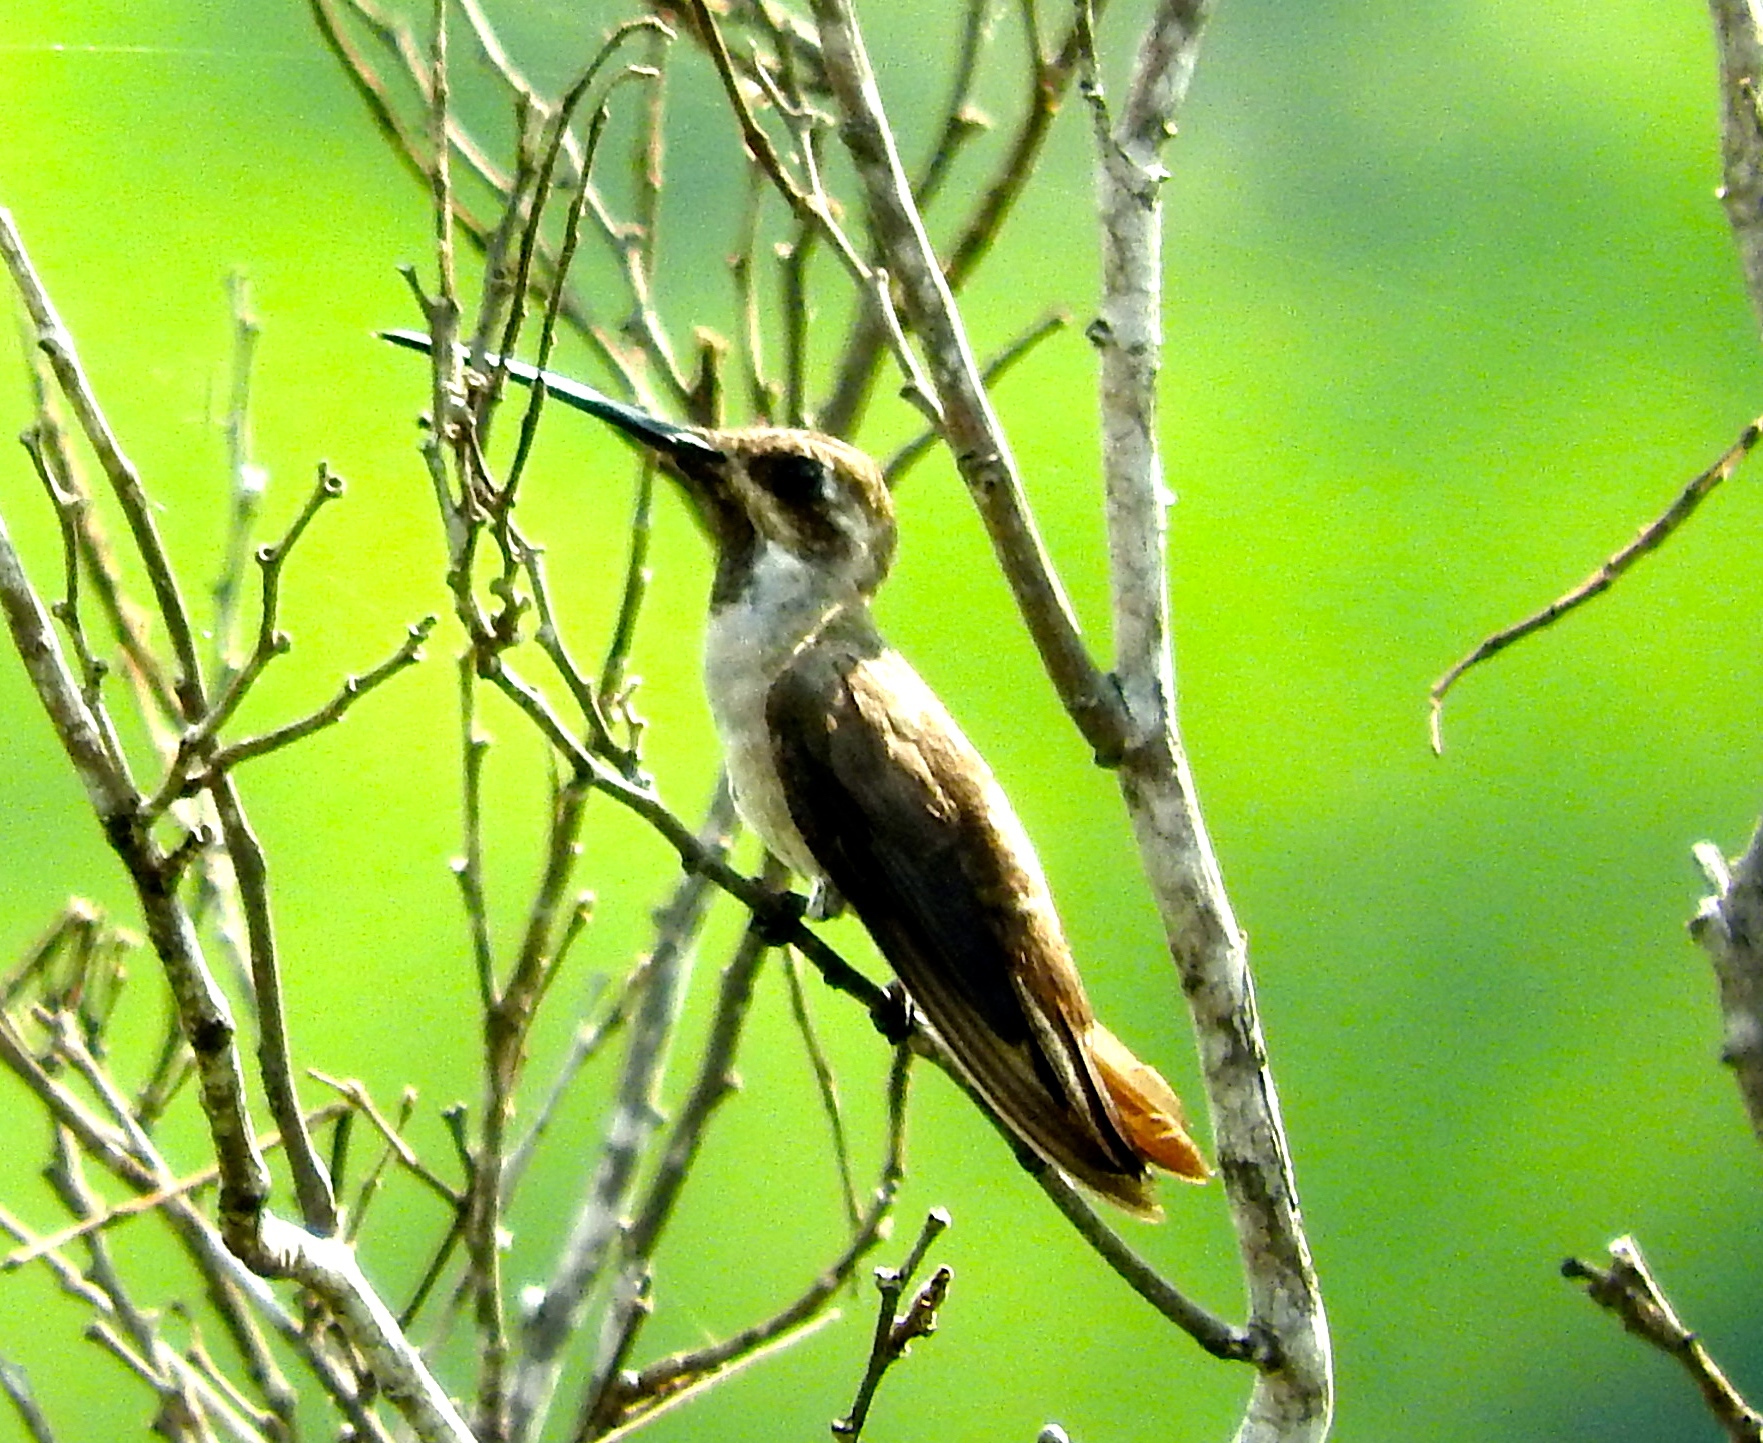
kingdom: Animalia
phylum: Chordata
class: Aves
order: Apodiformes
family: Trochilidae
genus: Heliomaster
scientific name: Heliomaster constantii
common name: Plain-capped starthroat
